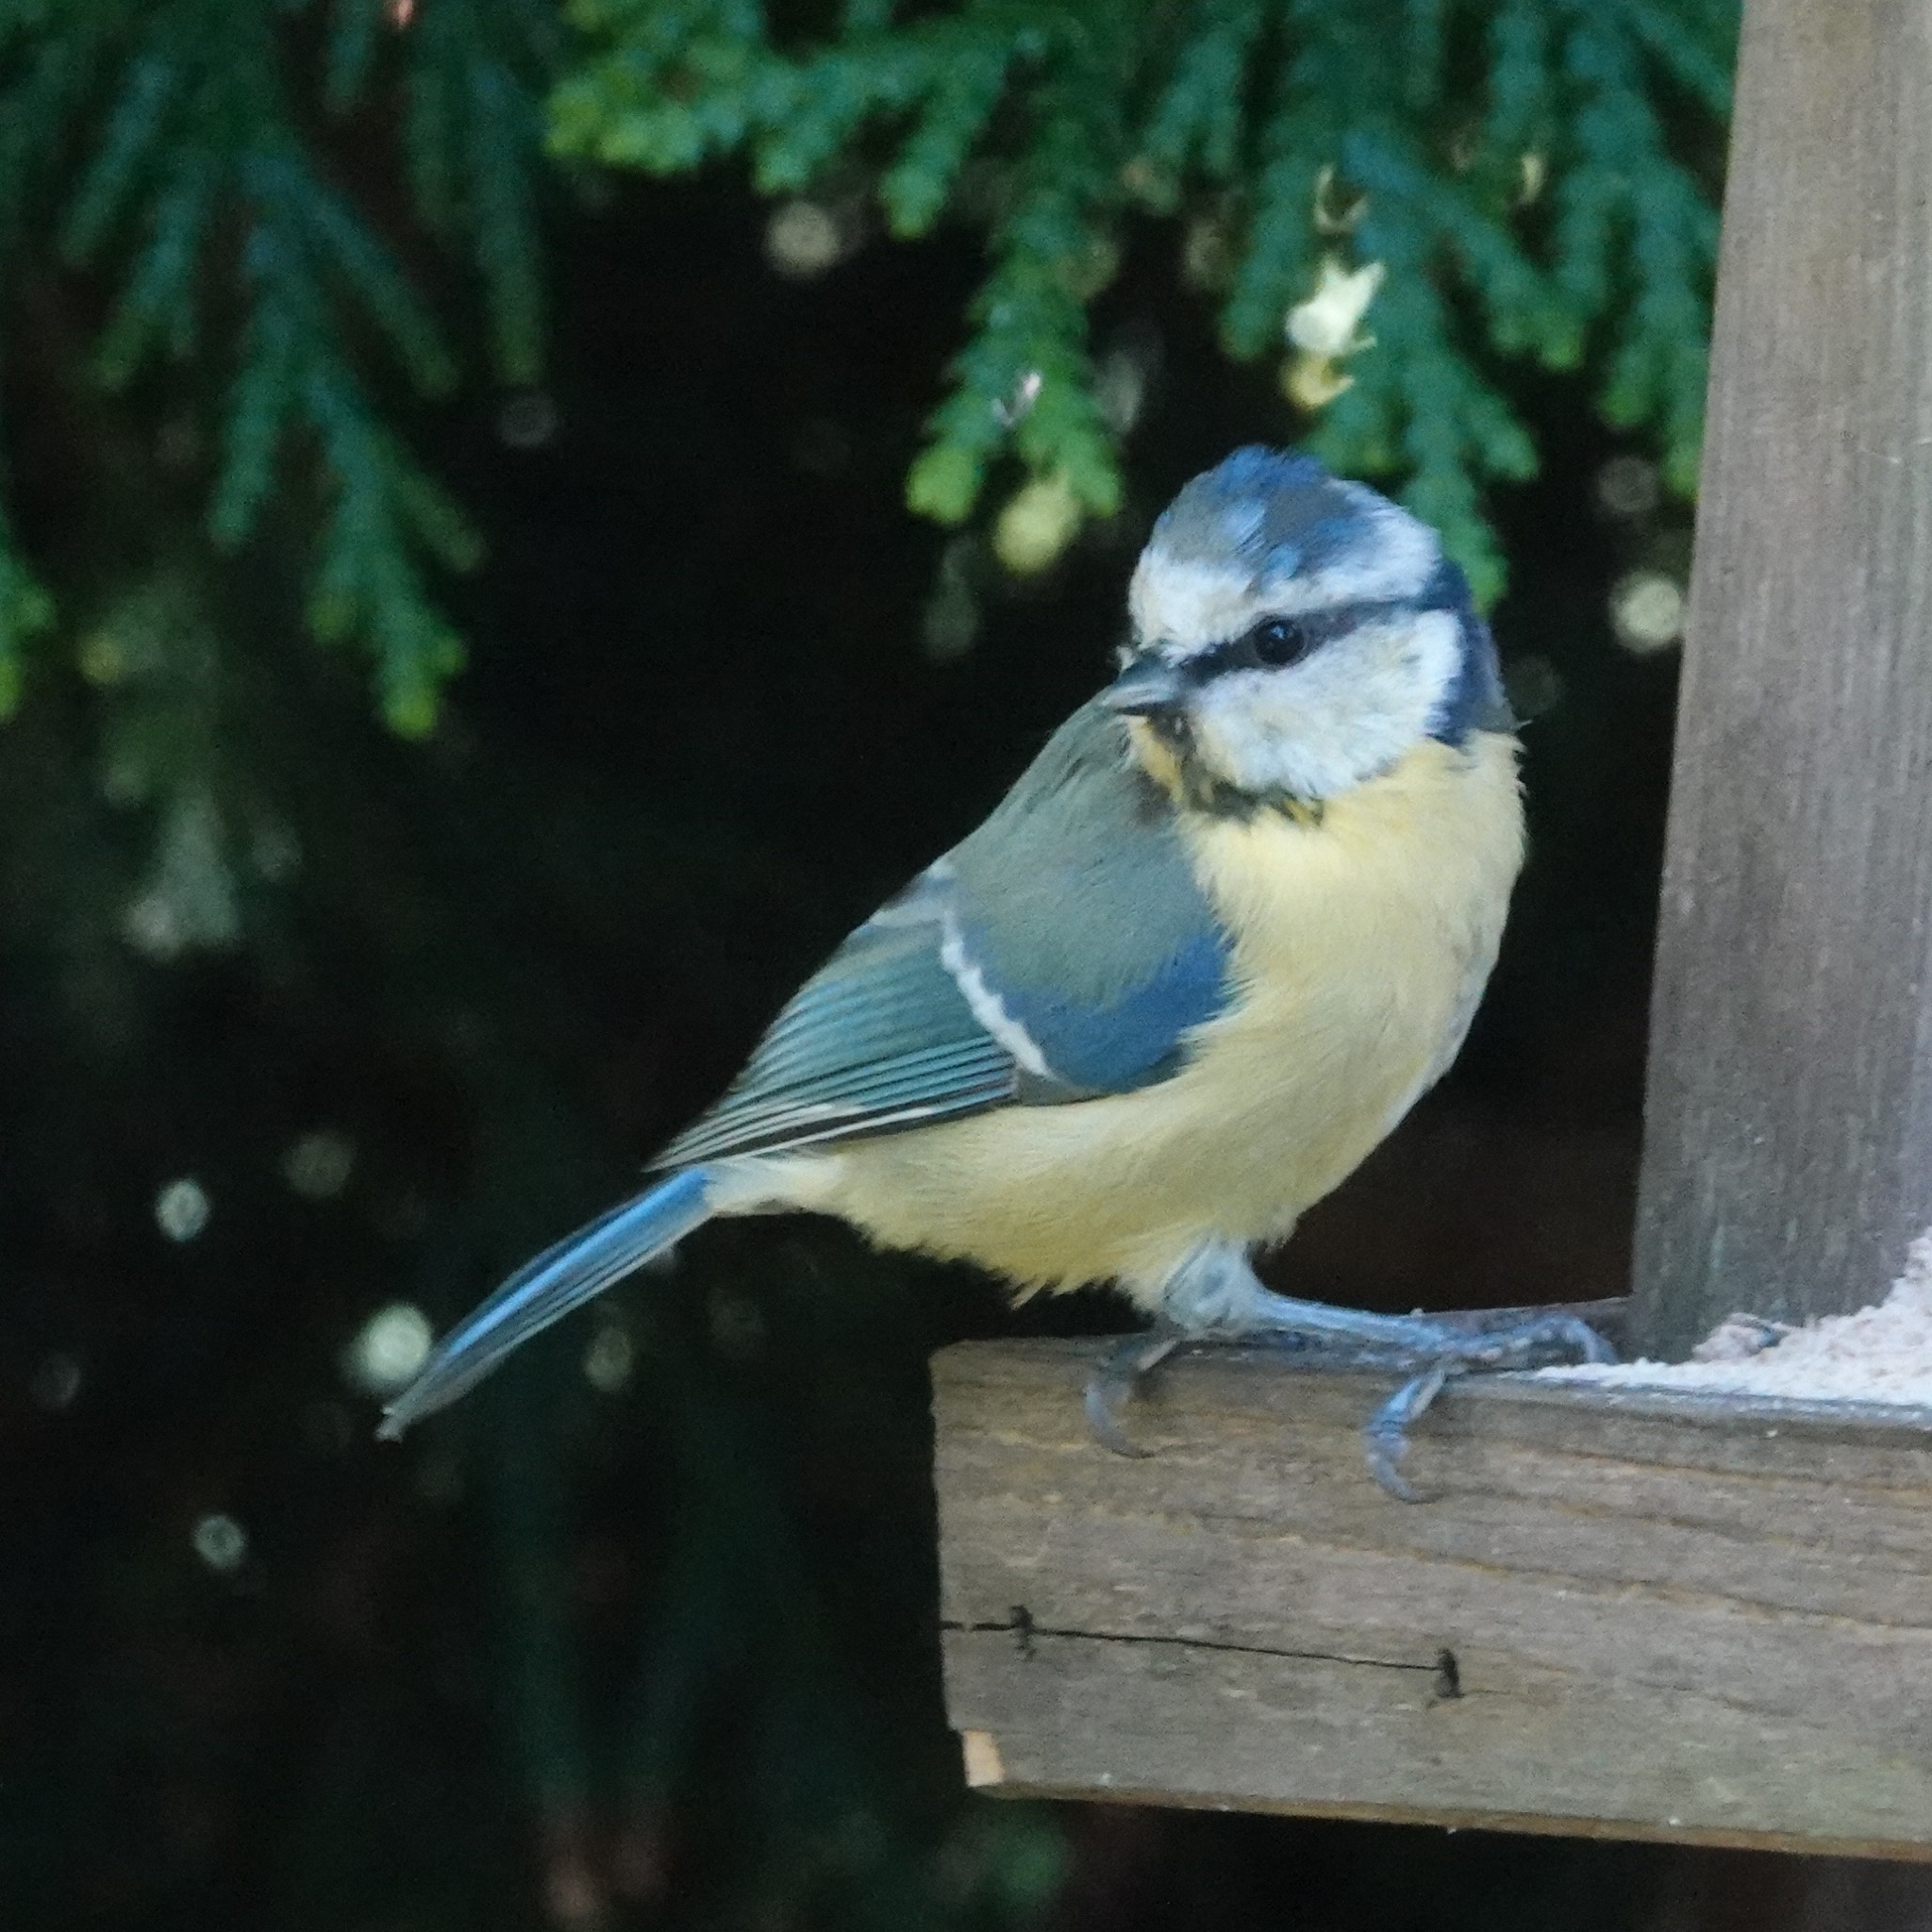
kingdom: Animalia
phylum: Chordata
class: Aves
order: Passeriformes
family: Paridae
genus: Cyanistes
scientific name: Cyanistes caeruleus
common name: Eurasian blue tit
